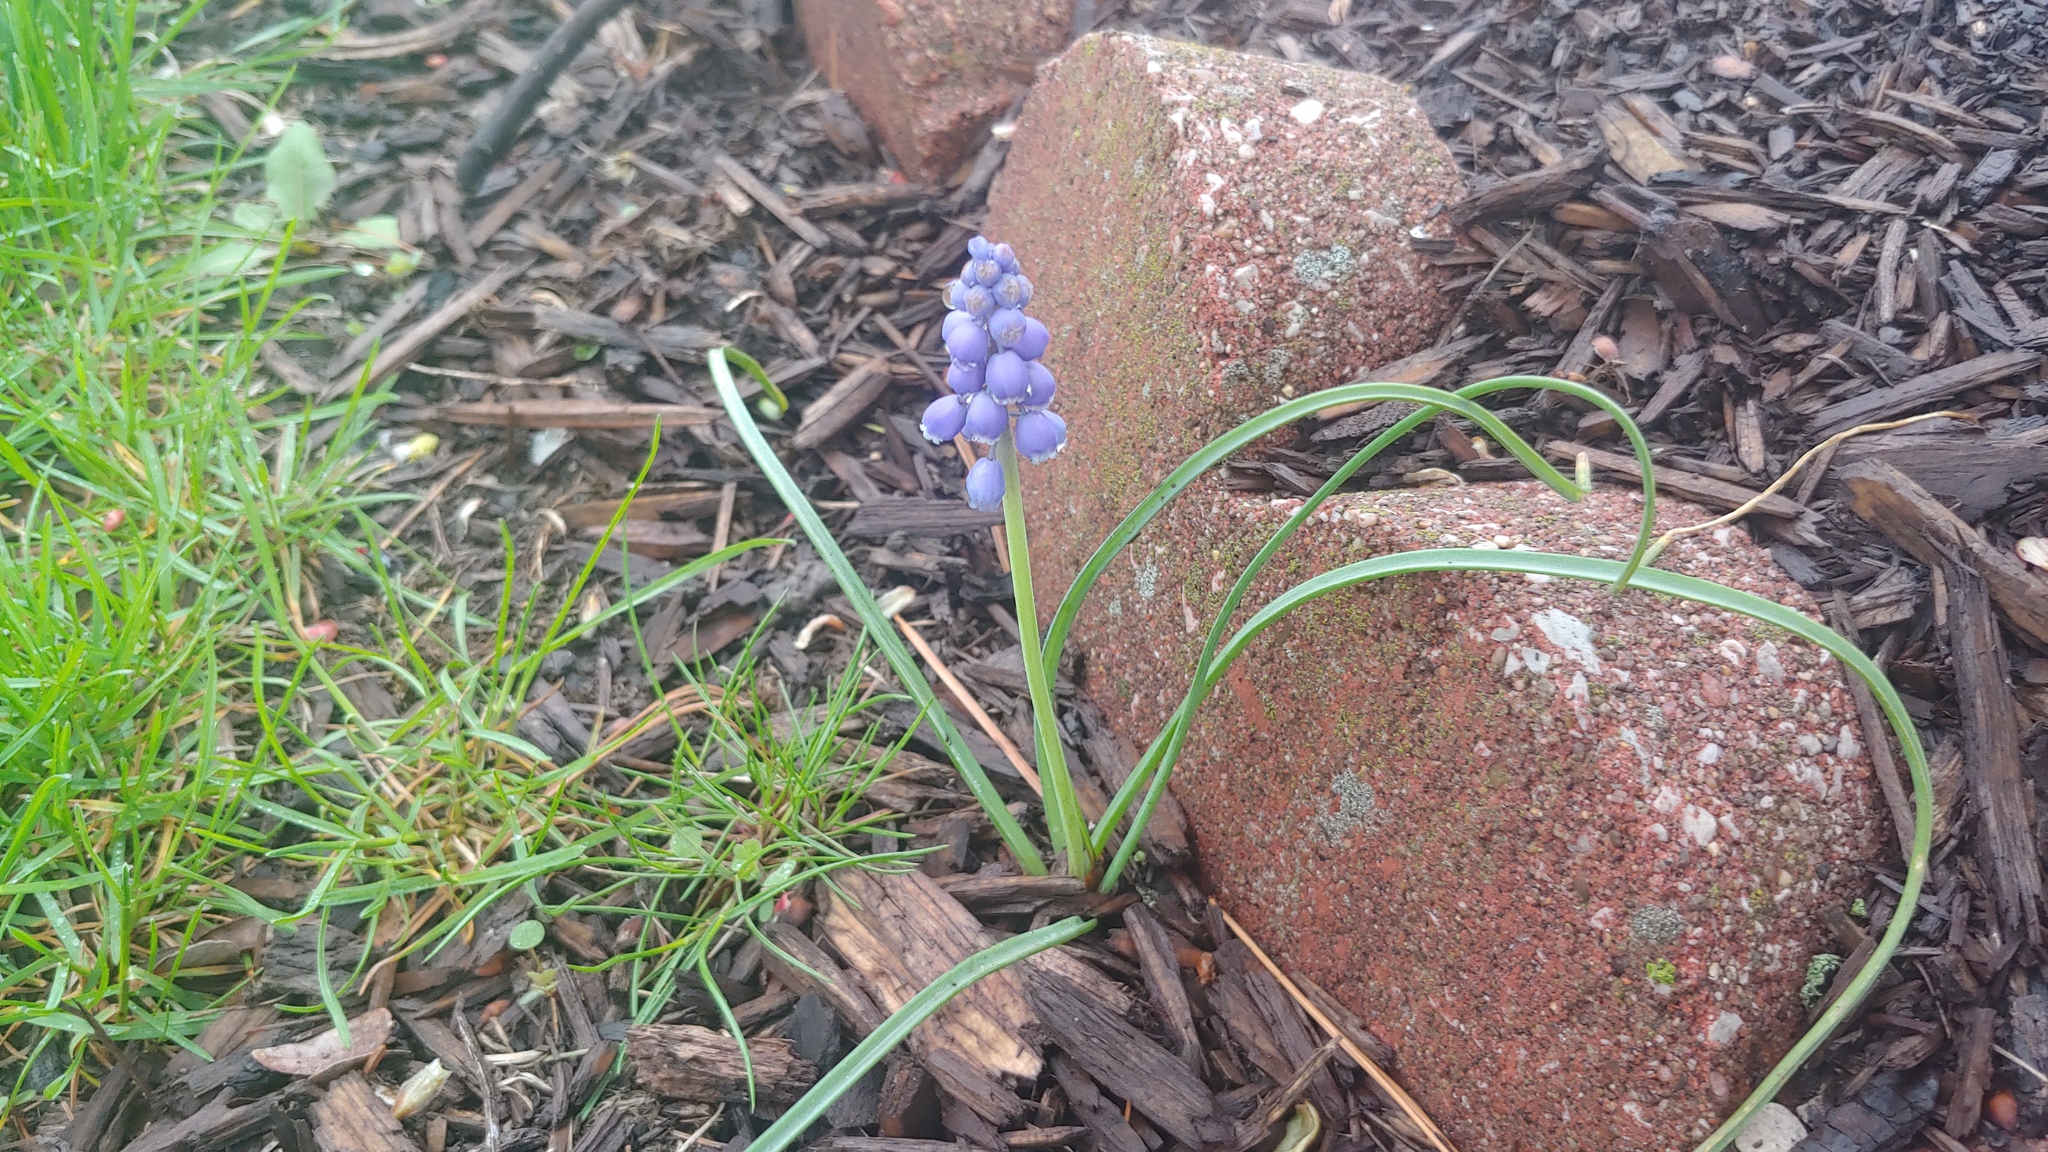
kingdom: Plantae
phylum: Tracheophyta
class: Liliopsida
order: Asparagales
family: Asparagaceae
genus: Muscari
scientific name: Muscari neglectum
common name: Grape-hyacinth
